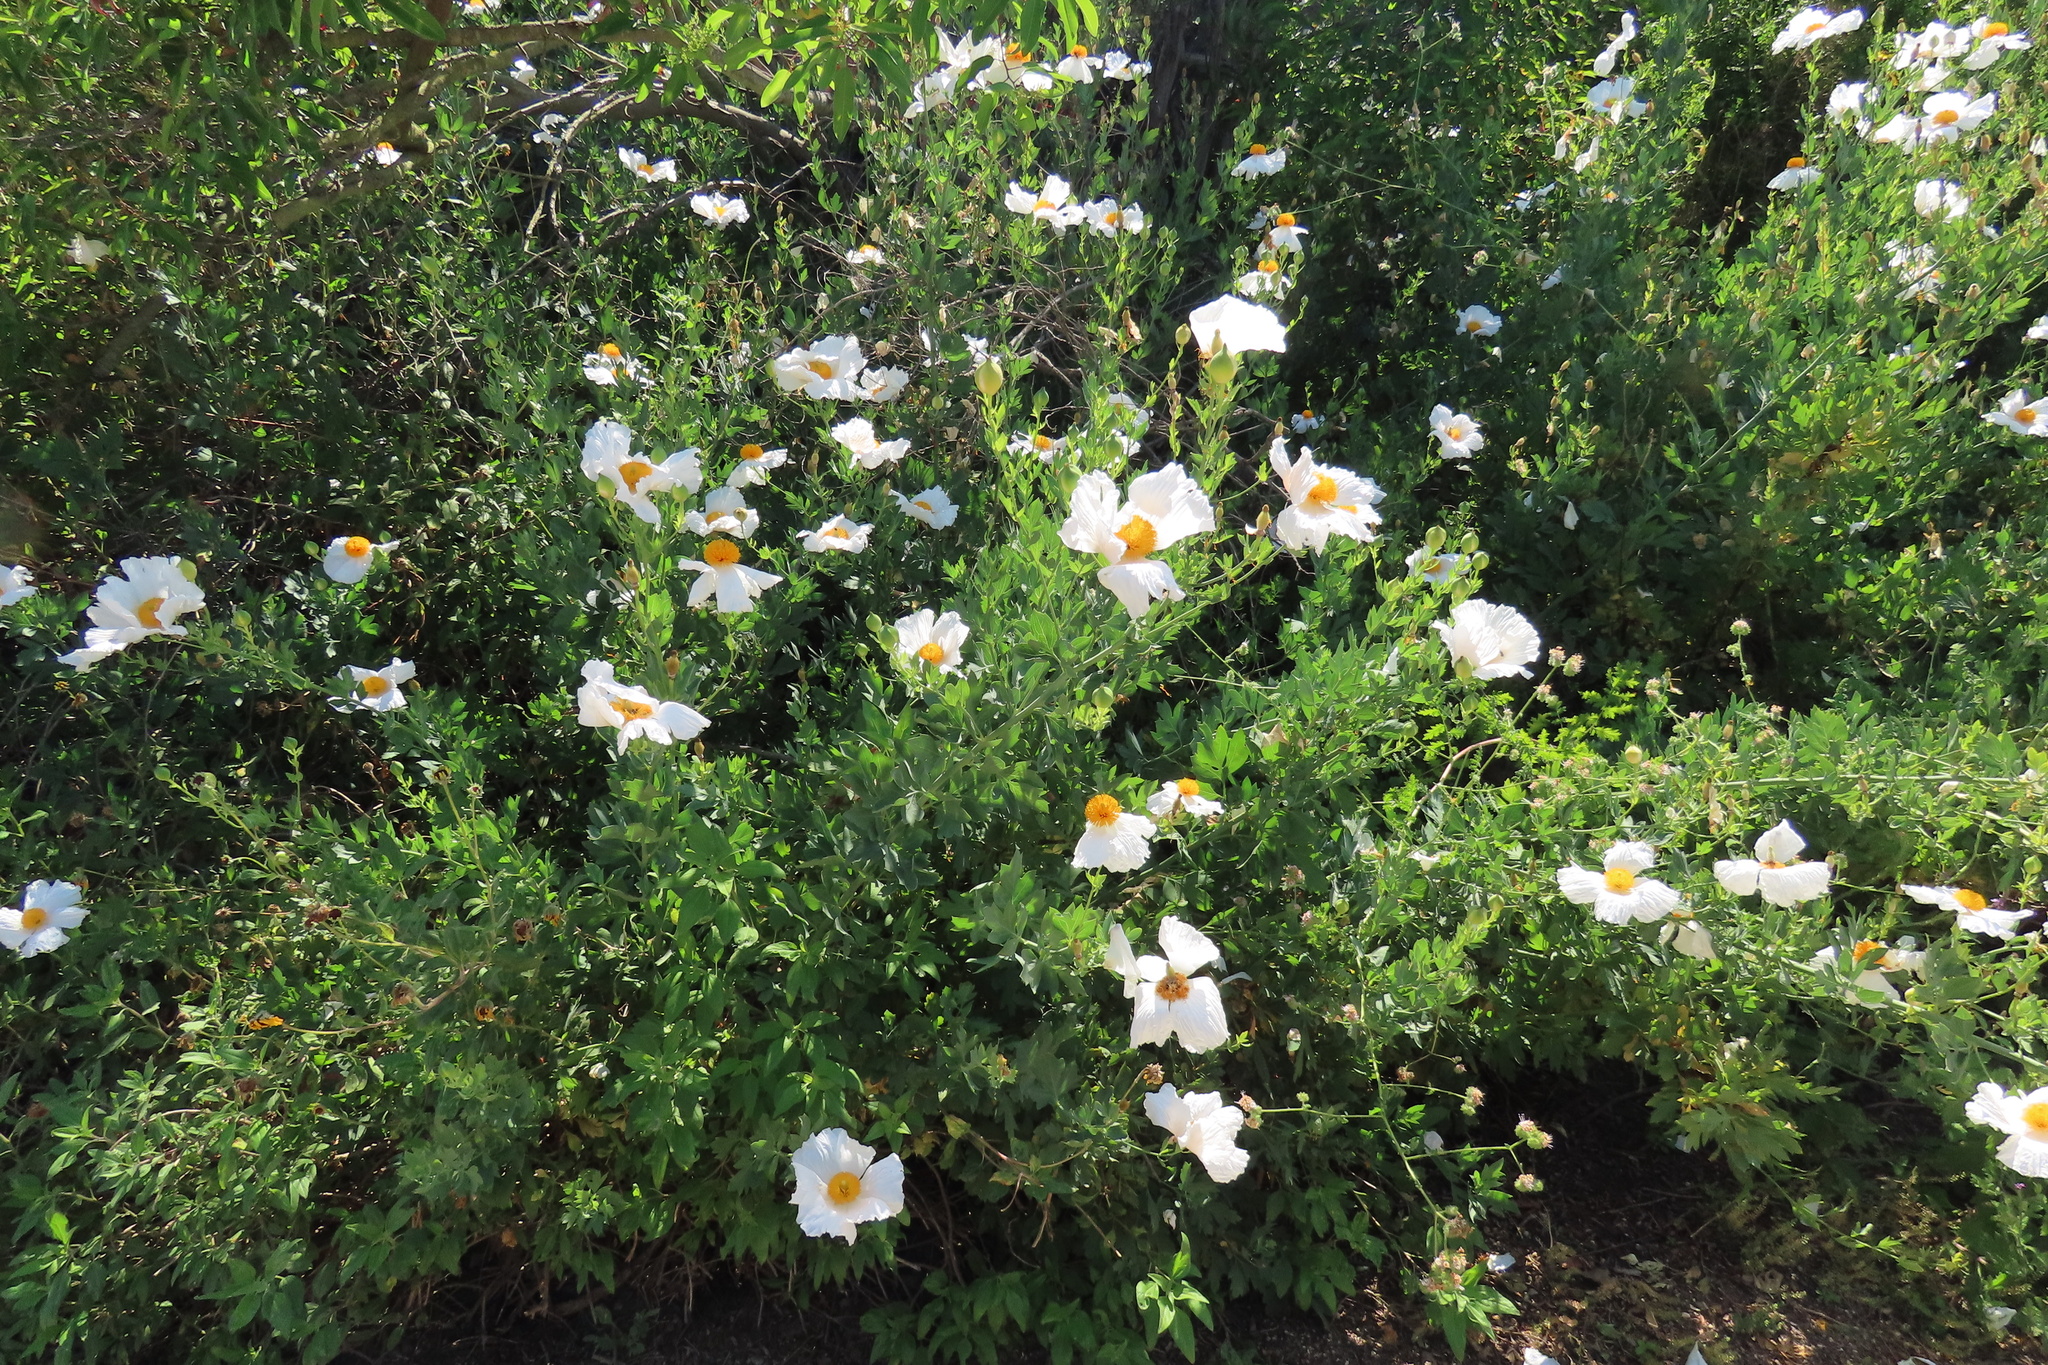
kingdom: Plantae
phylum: Tracheophyta
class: Magnoliopsida
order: Ranunculales
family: Papaveraceae
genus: Romneya
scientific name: Romneya coulteri
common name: California tree-poppy
